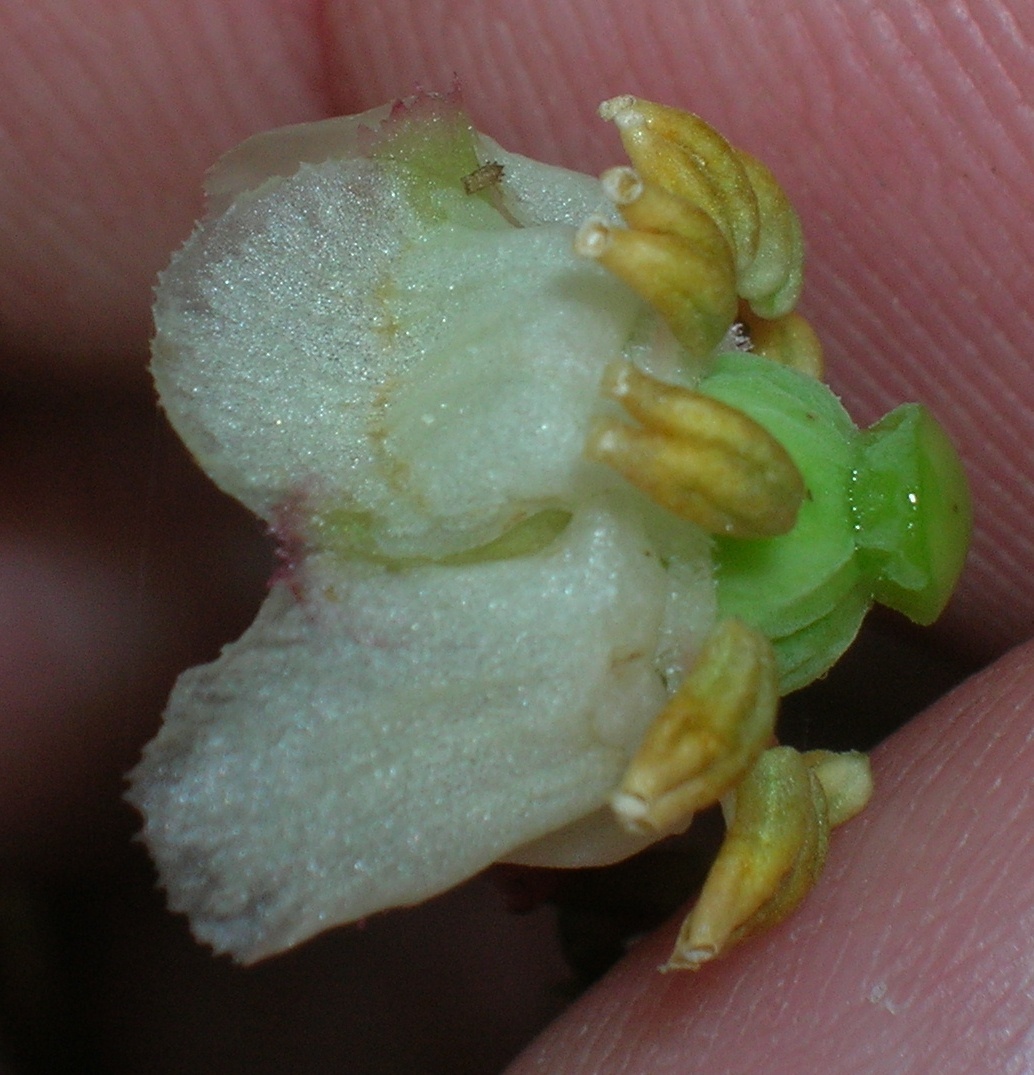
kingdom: Plantae
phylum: Tracheophyta
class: Magnoliopsida
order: Ericales
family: Ericaceae
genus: Chimaphila
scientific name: Chimaphila menziesii
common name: Menzies' pipsissewa
